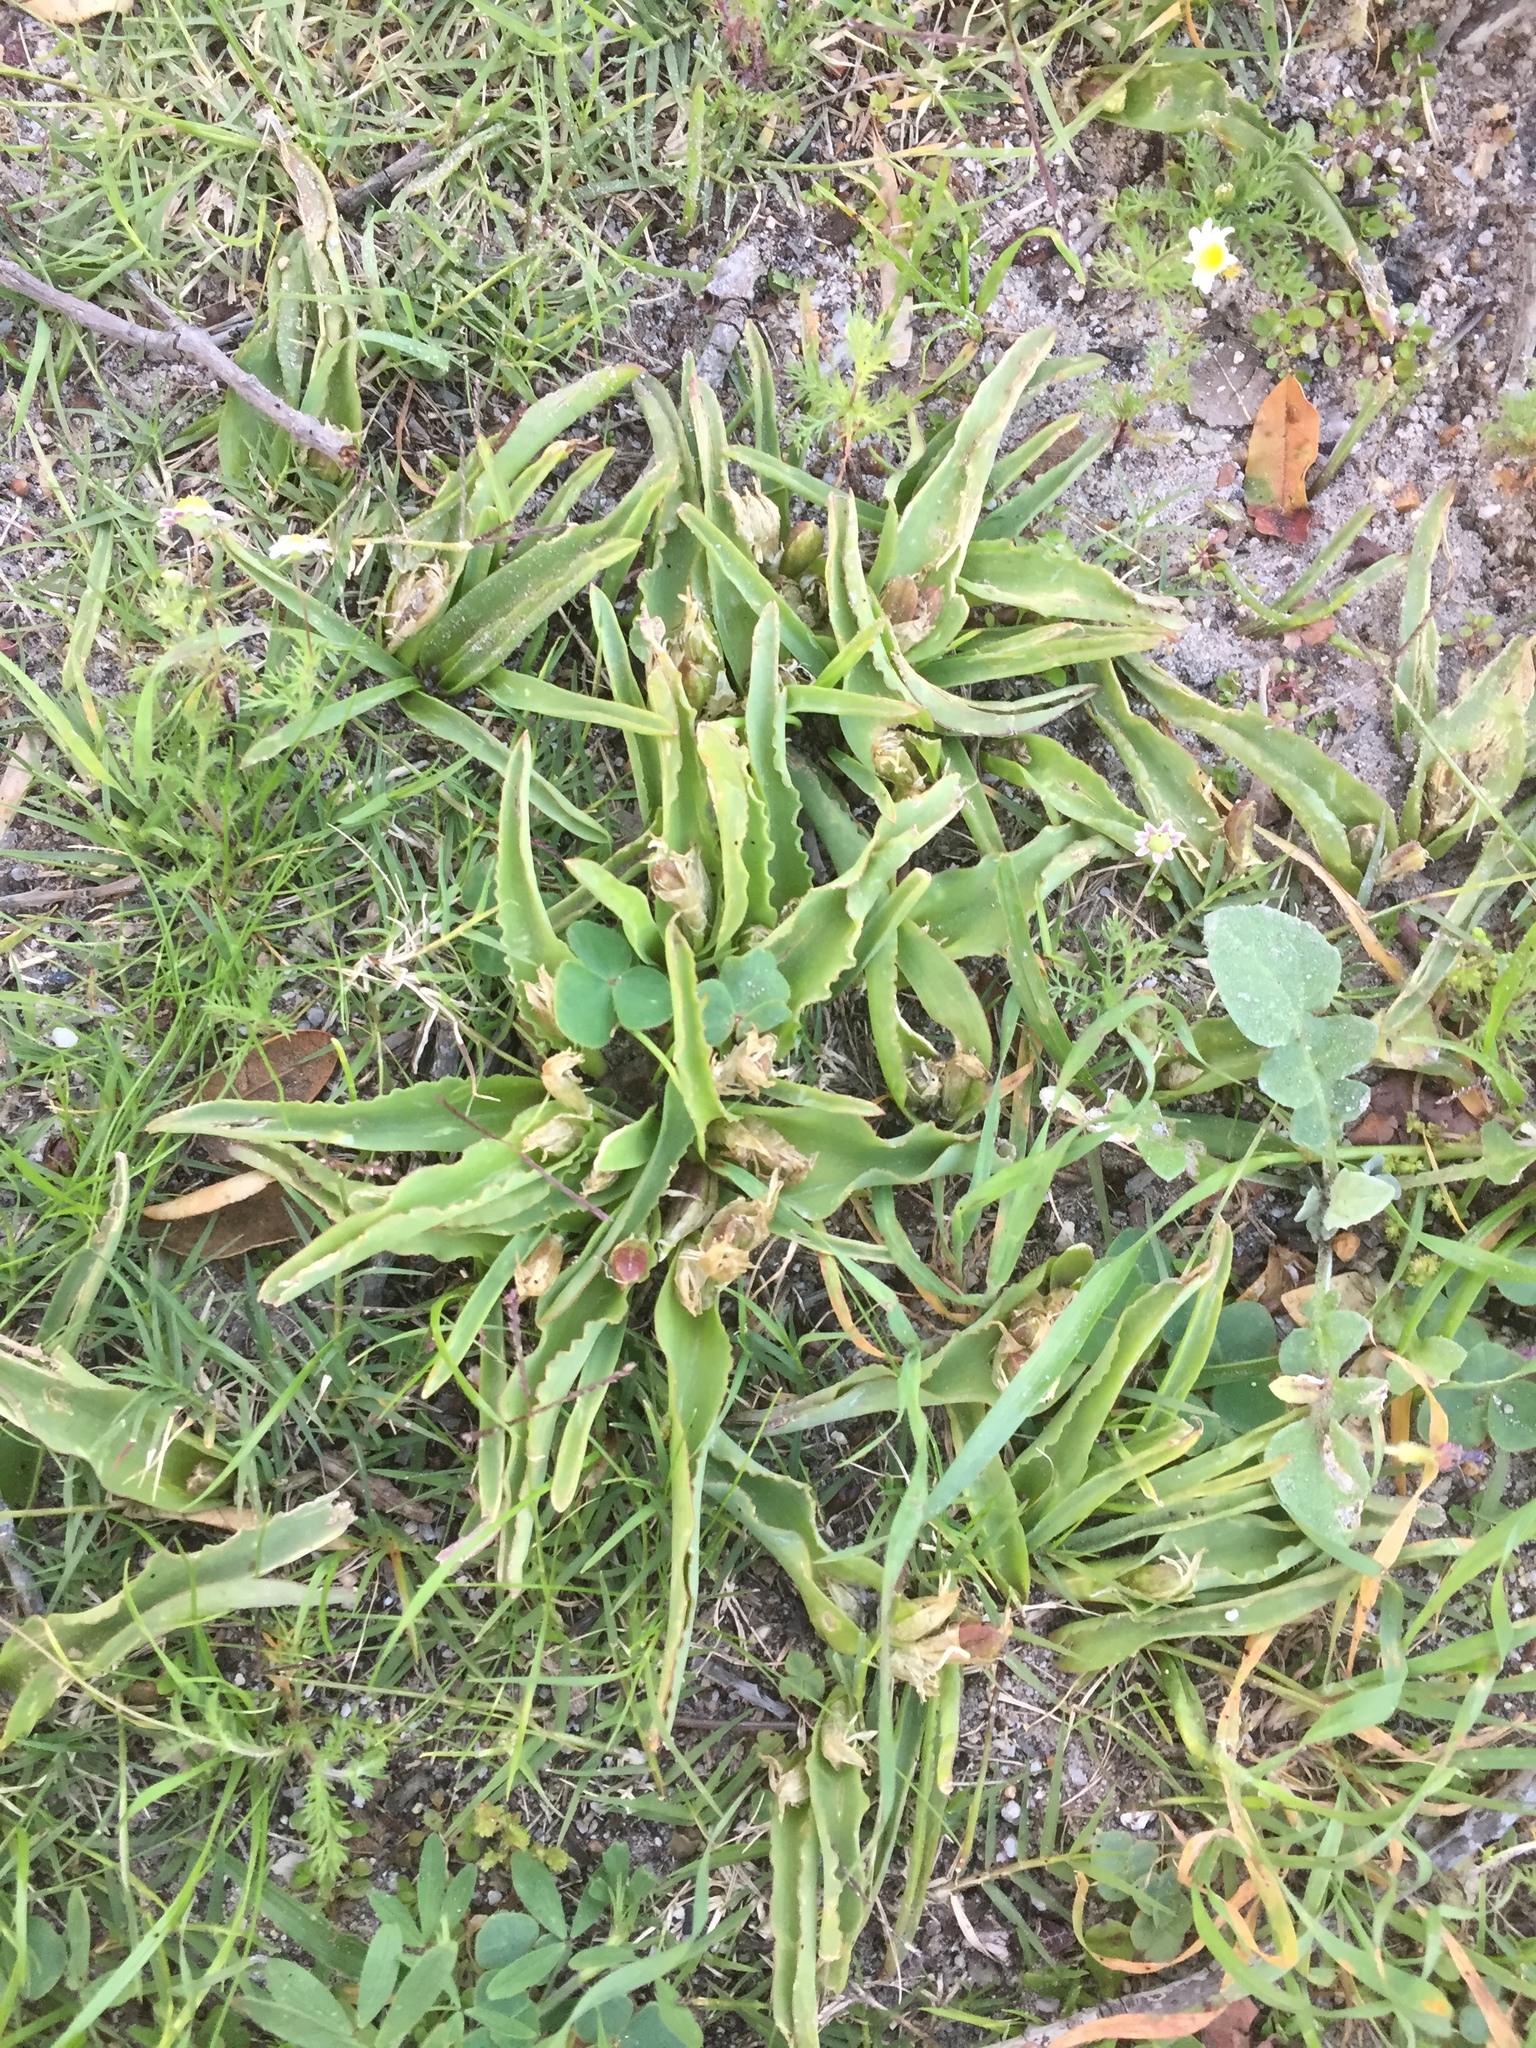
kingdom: Plantae
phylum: Tracheophyta
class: Liliopsida
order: Asparagales
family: Asparagaceae
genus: Lachenalia
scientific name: Lachenalia reflexa
